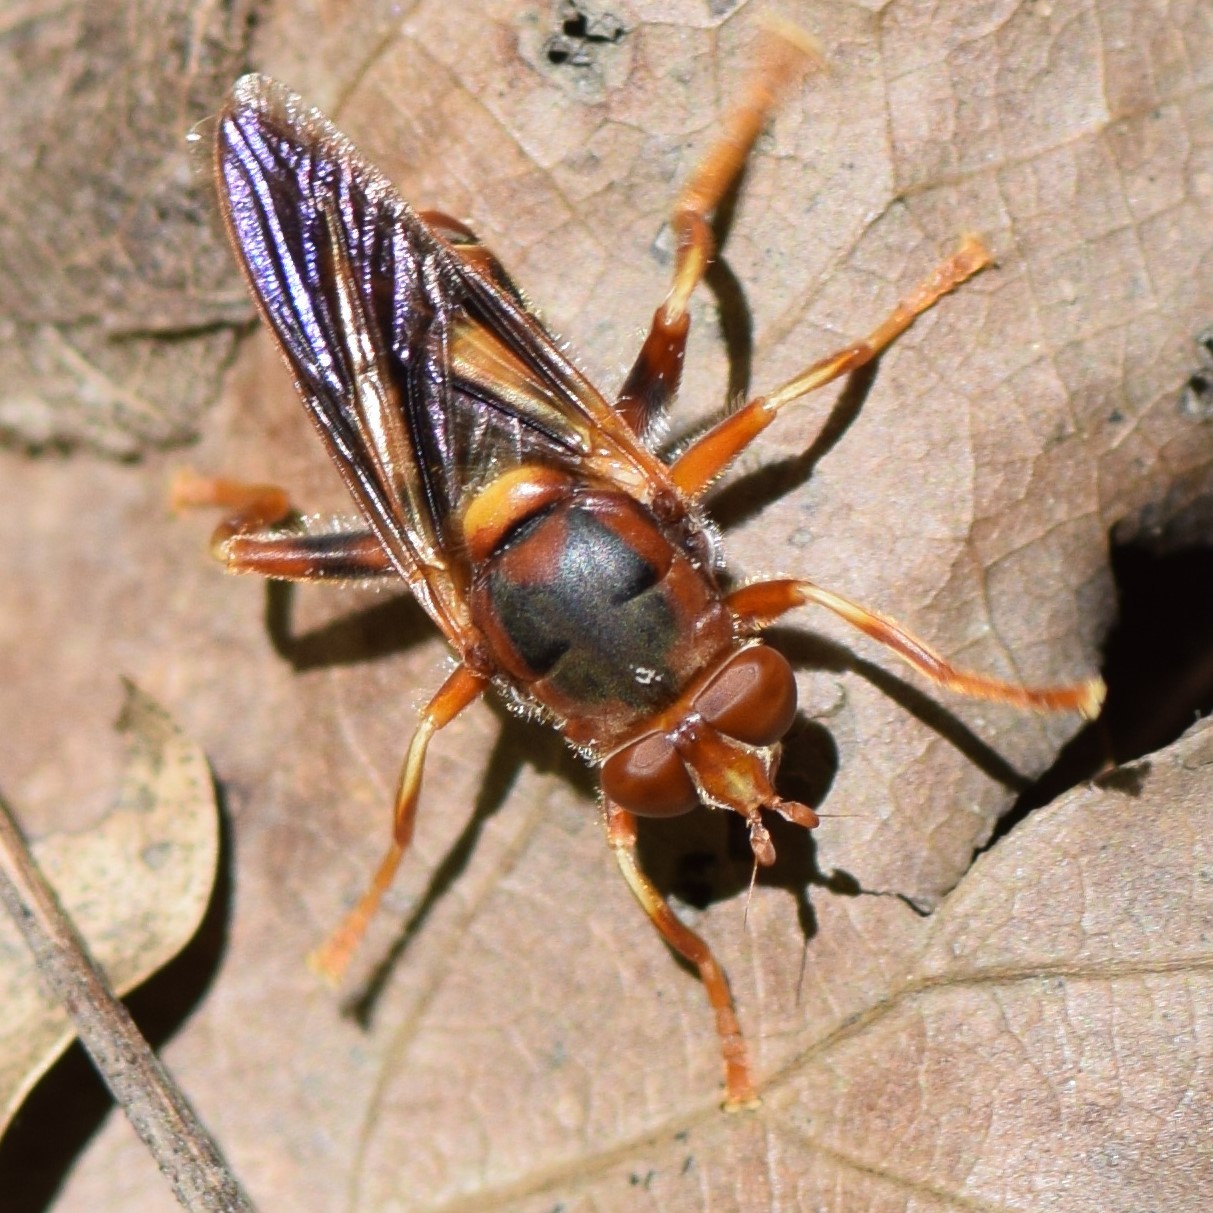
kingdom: Animalia
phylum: Arthropoda
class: Insecta
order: Diptera
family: Syrphidae
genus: Teuchocnemis
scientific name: Teuchocnemis bacuntius
